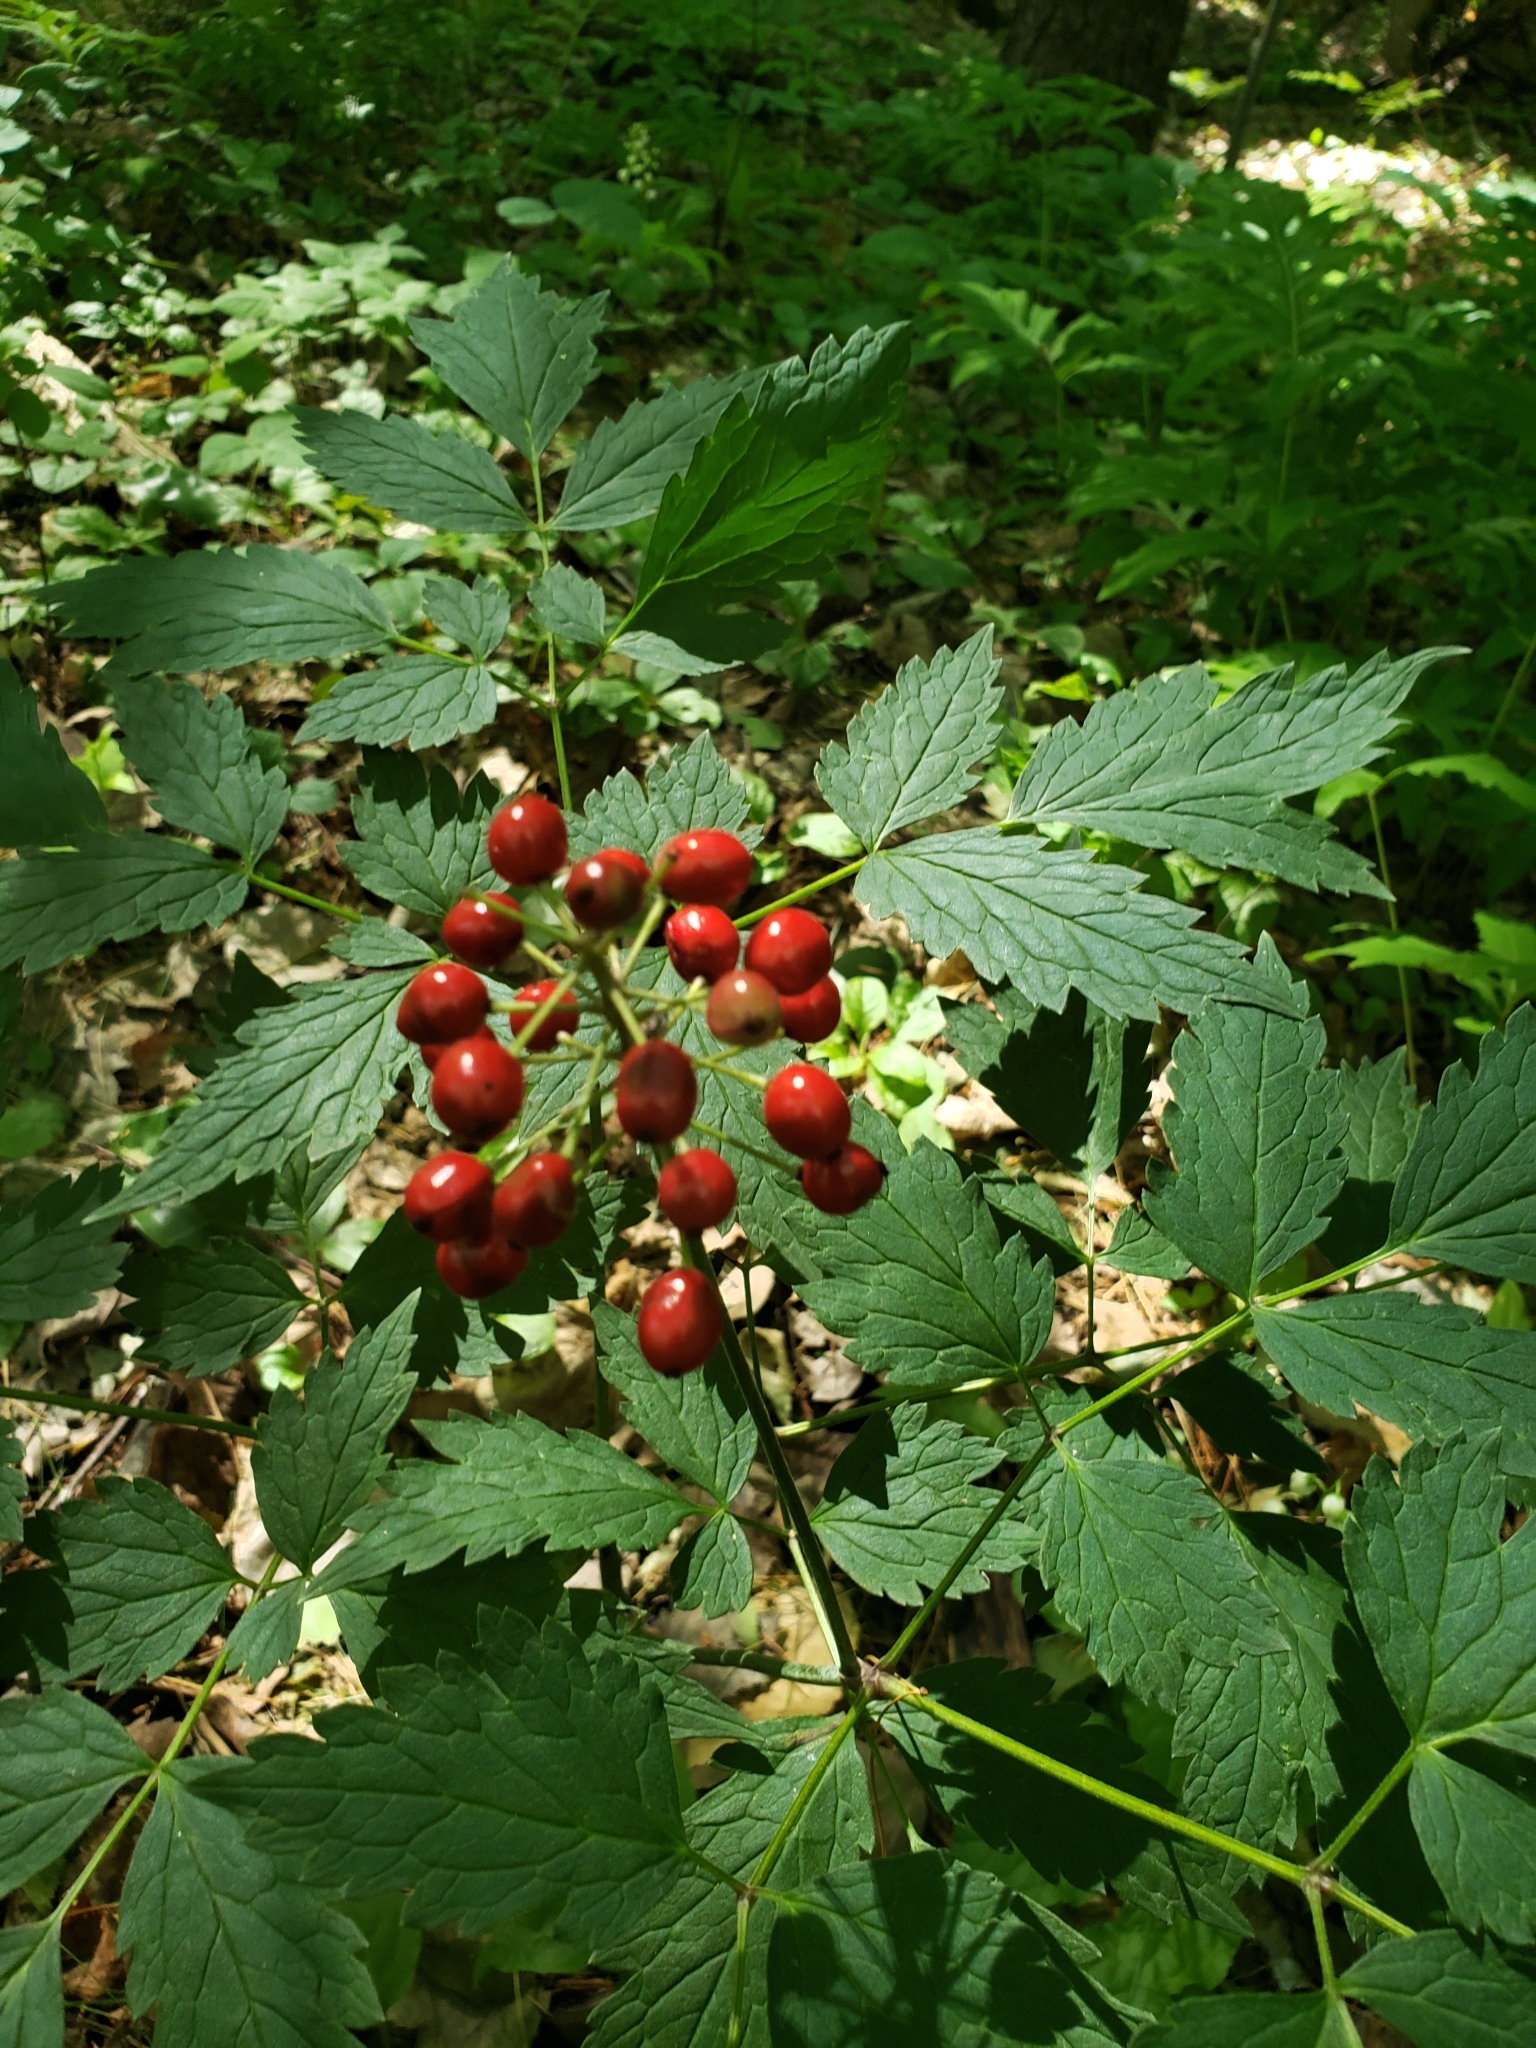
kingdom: Plantae
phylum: Tracheophyta
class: Magnoliopsida
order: Ranunculales
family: Ranunculaceae
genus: Actaea
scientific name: Actaea rubra
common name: Red baneberry
